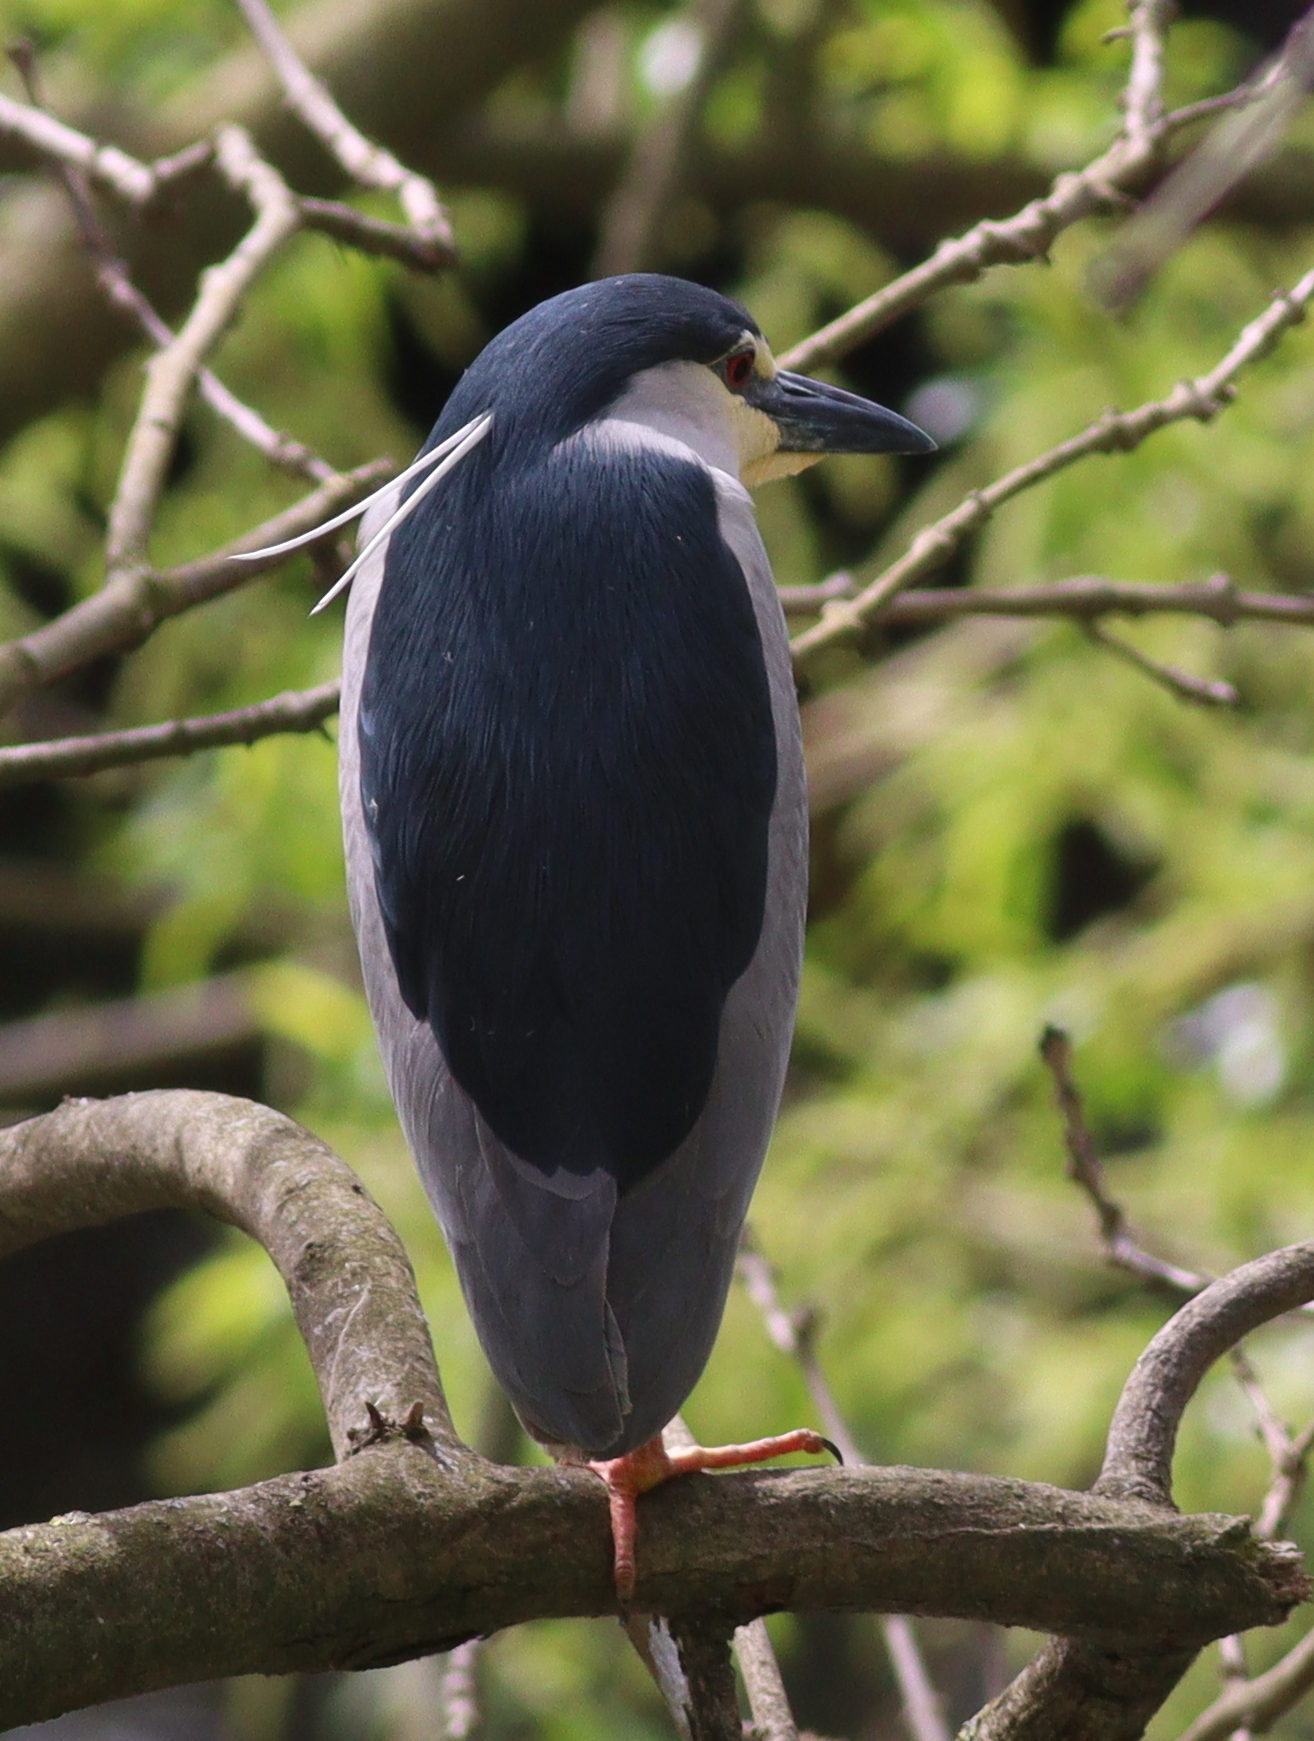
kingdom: Animalia
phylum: Chordata
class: Aves
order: Pelecaniformes
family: Ardeidae
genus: Nycticorax
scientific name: Nycticorax nycticorax
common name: Black-crowned night heron
